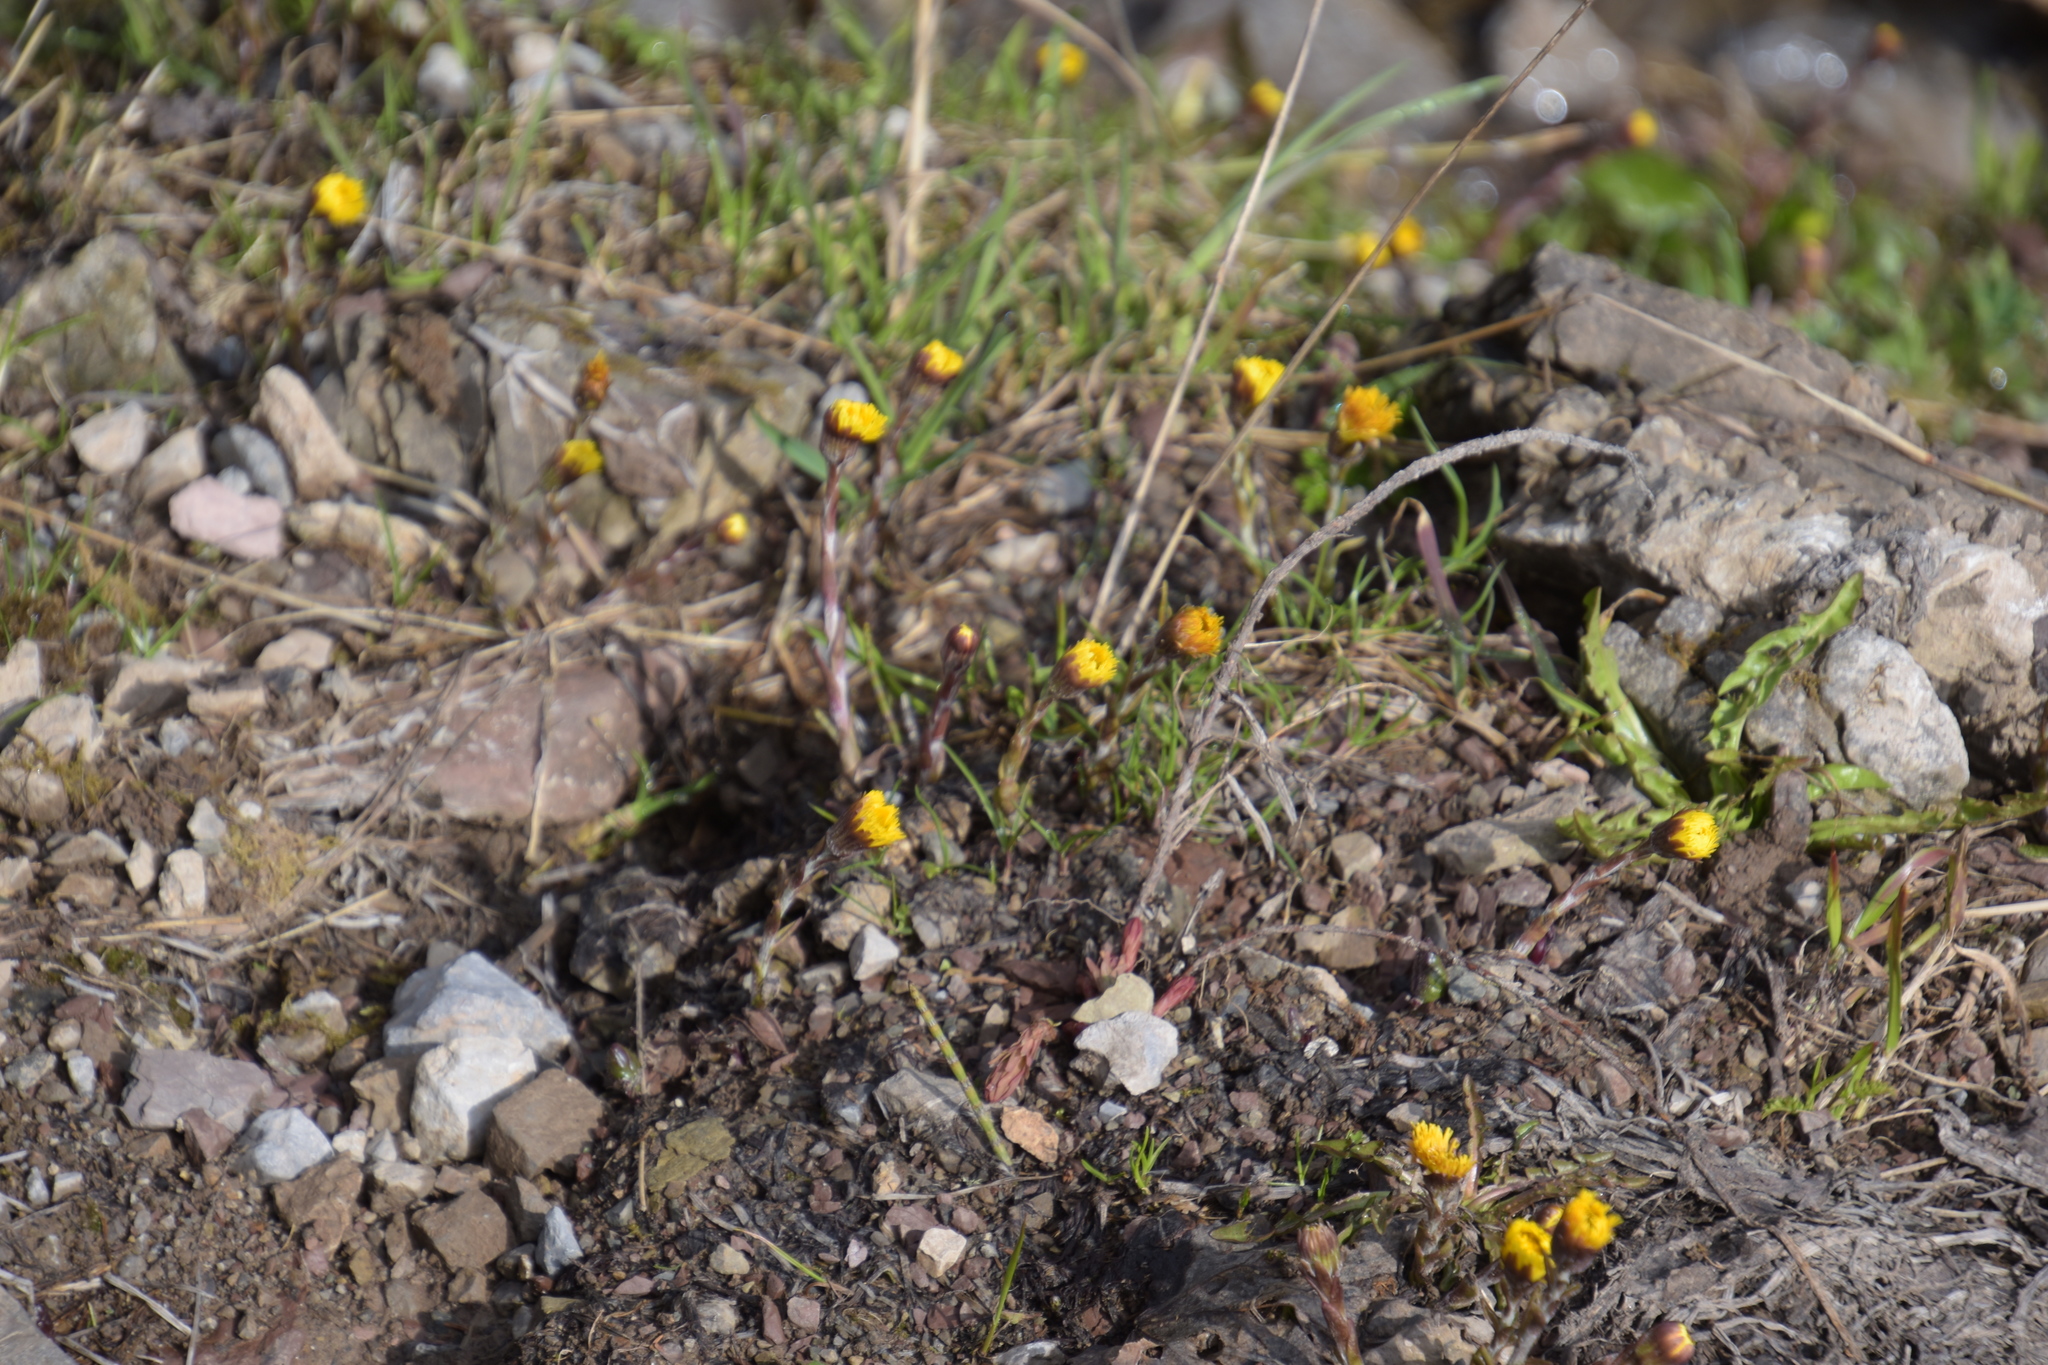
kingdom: Plantae
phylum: Tracheophyta
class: Magnoliopsida
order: Asterales
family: Asteraceae
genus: Tussilago
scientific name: Tussilago farfara
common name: Coltsfoot
